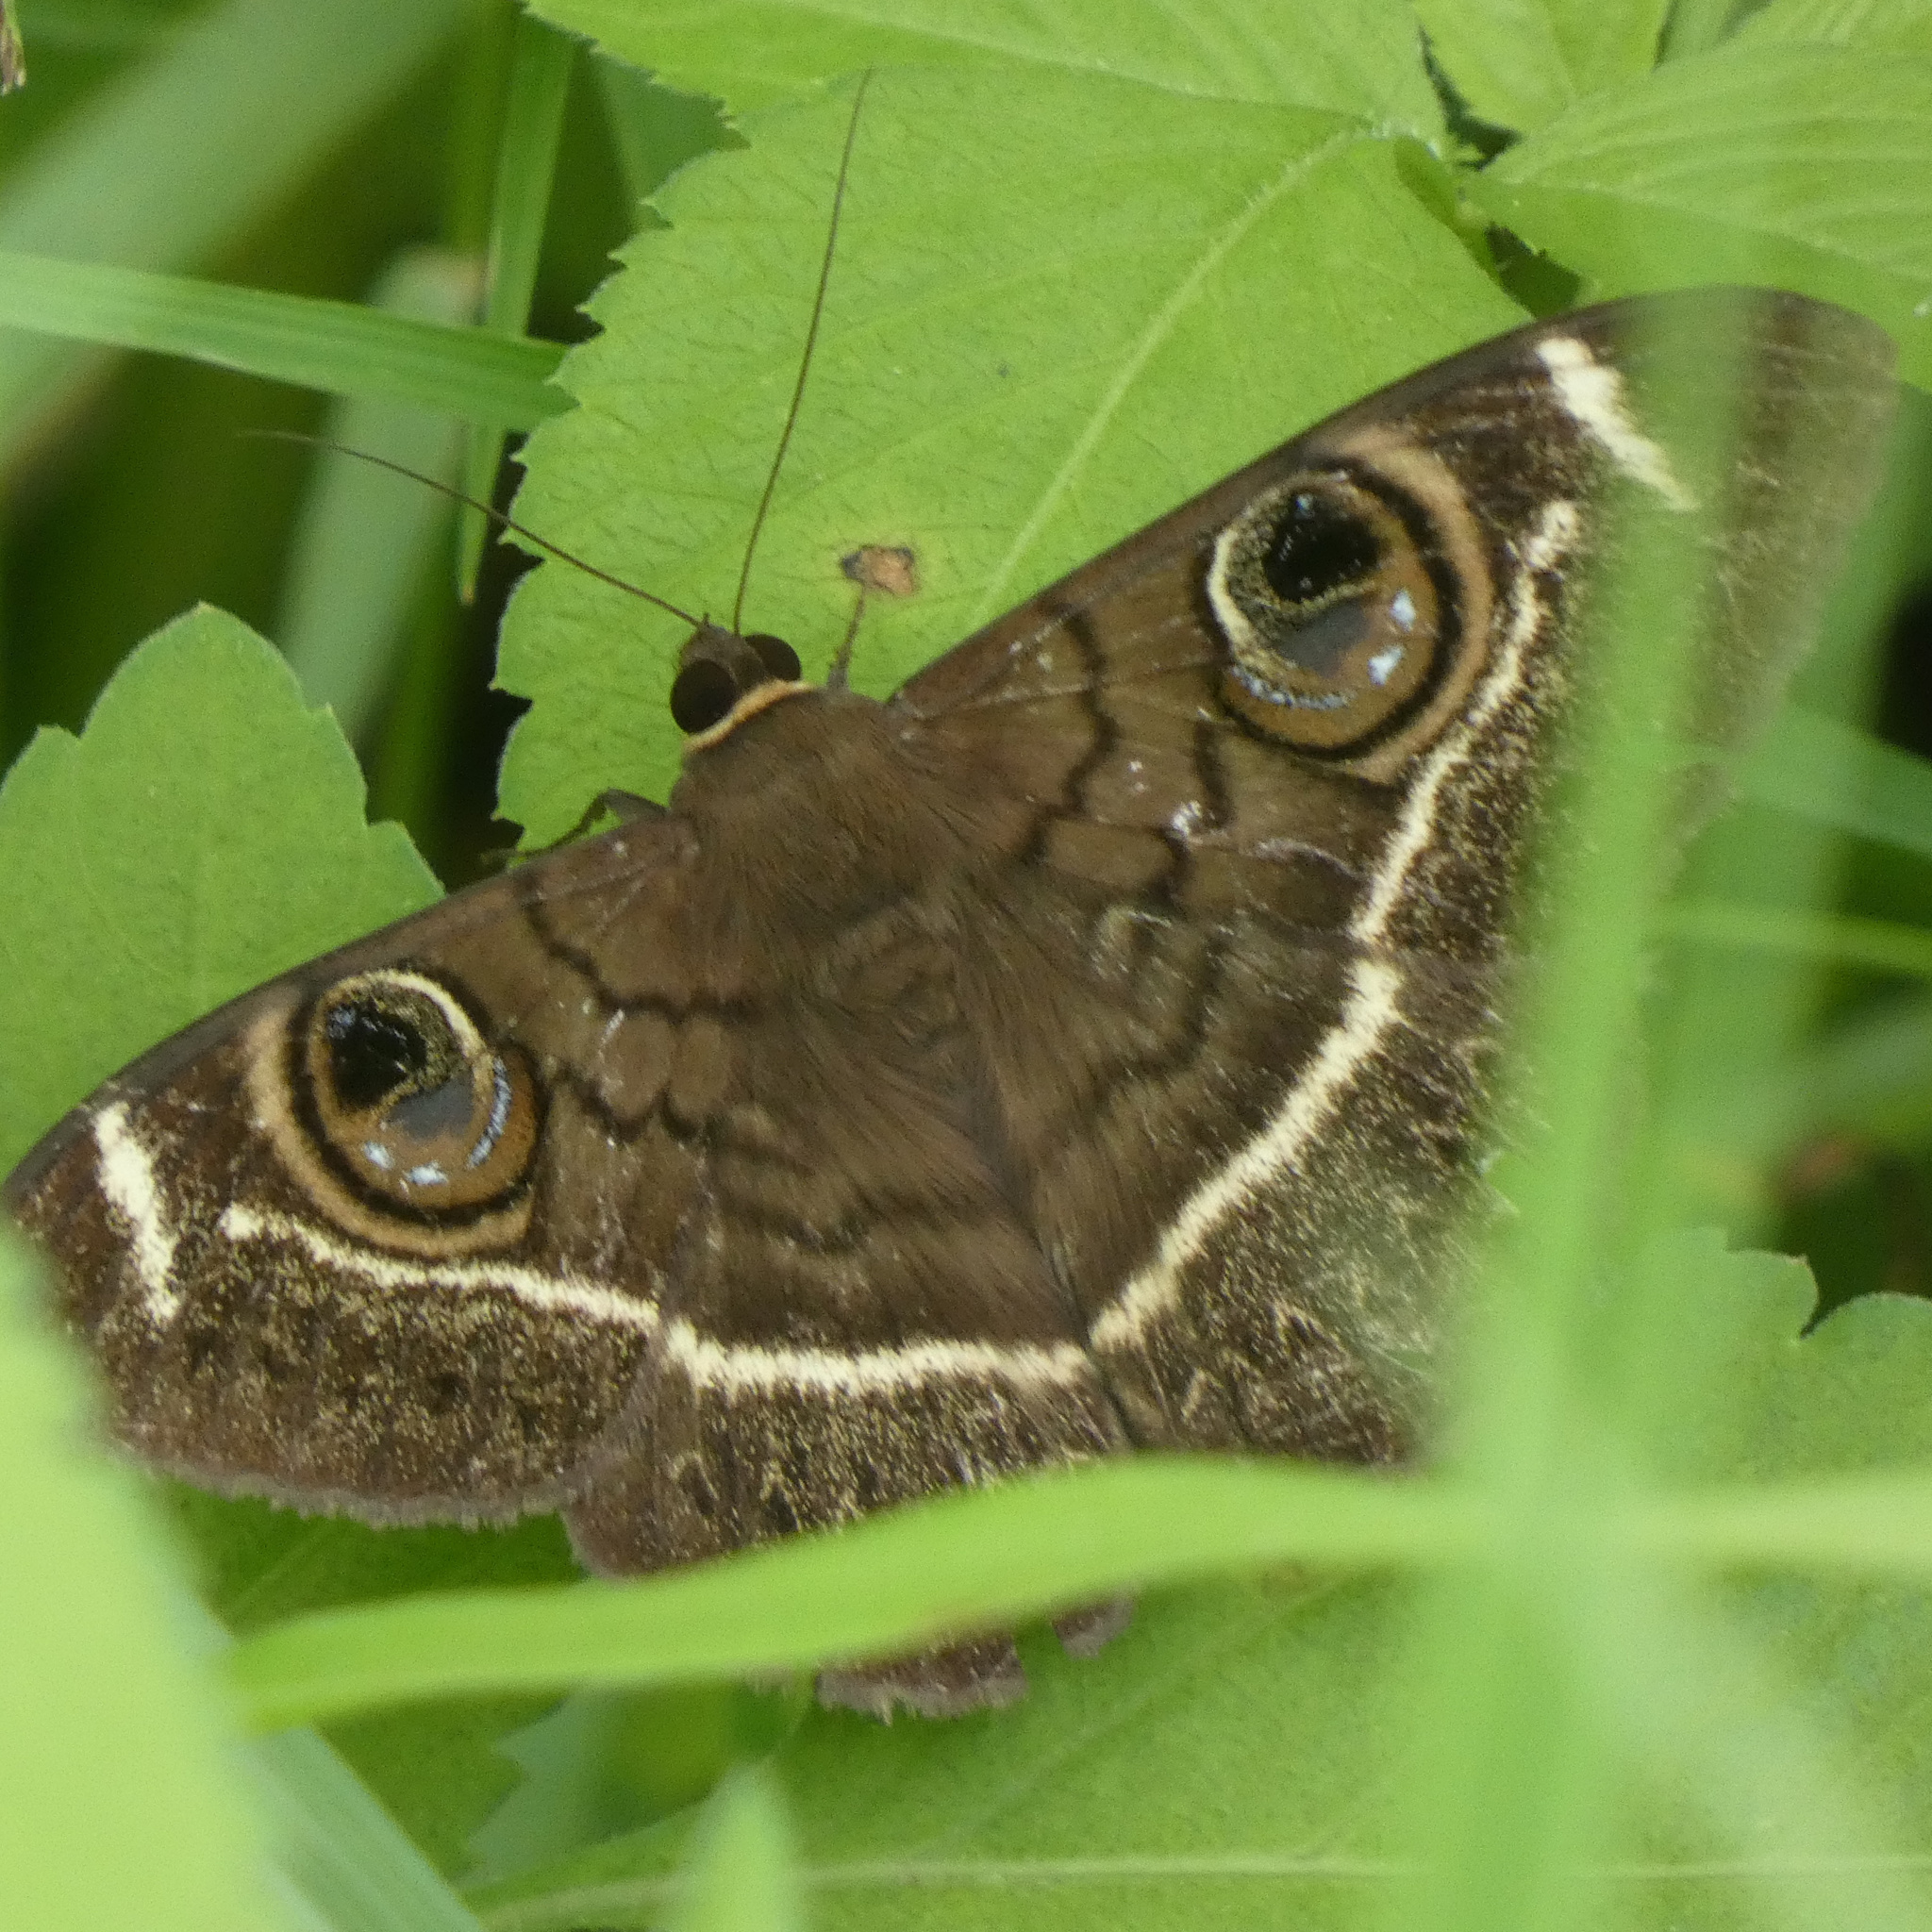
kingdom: Animalia
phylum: Arthropoda
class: Insecta
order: Lepidoptera
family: Erebidae
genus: Cyligramma
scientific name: Cyligramma latona
